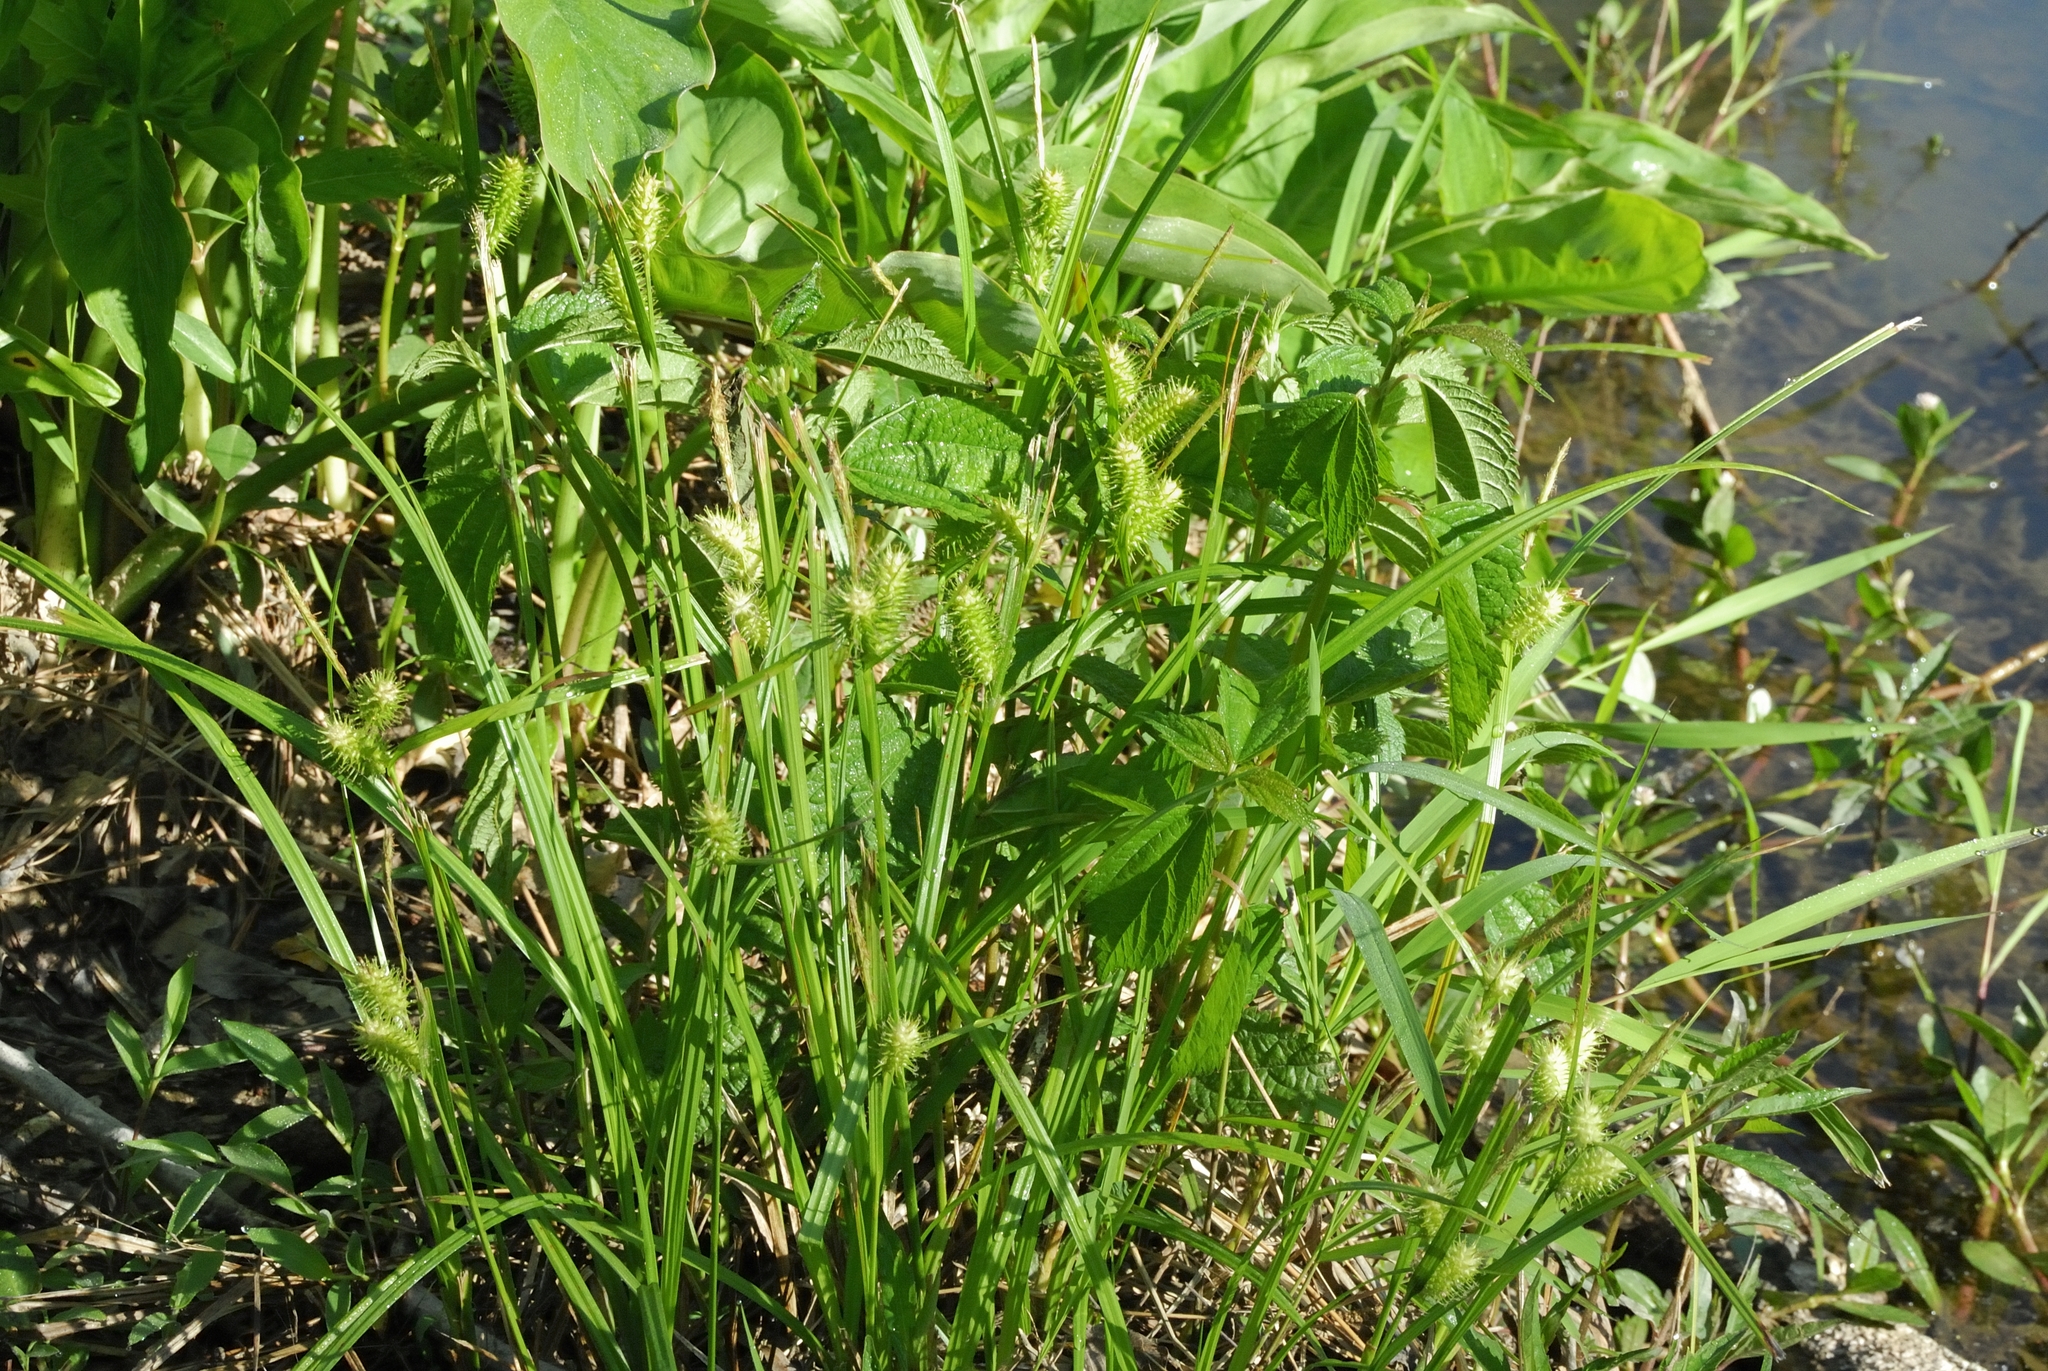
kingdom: Plantae
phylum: Tracheophyta
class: Liliopsida
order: Poales
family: Cyperaceae
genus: Carex
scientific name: Carex lurida
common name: Sallow sedge
